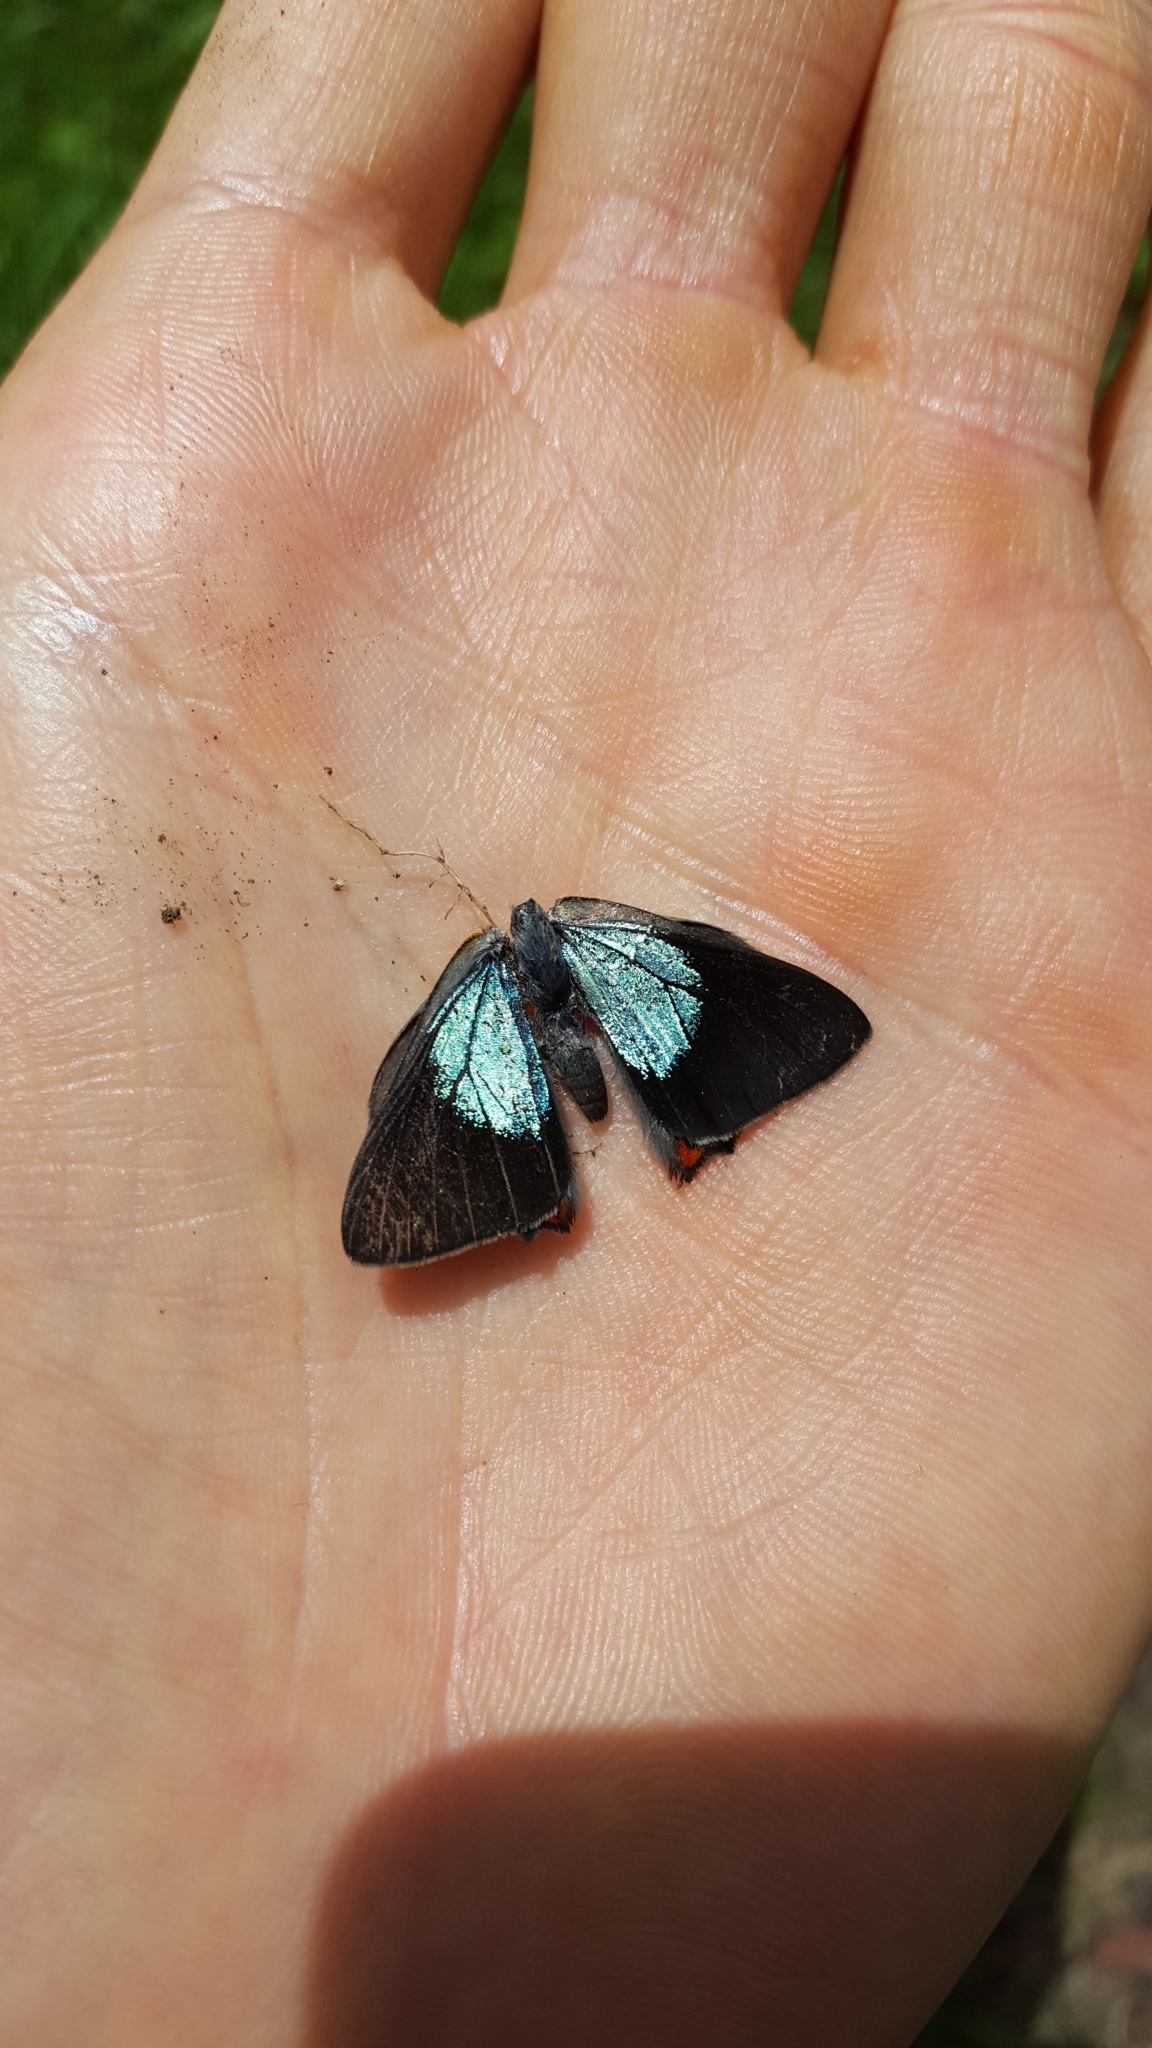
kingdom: Animalia
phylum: Arthropoda
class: Insecta
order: Lepidoptera
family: Lycaenidae
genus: Hypochrysops
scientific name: Hypochrysops delicia
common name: Moonlight jewel
